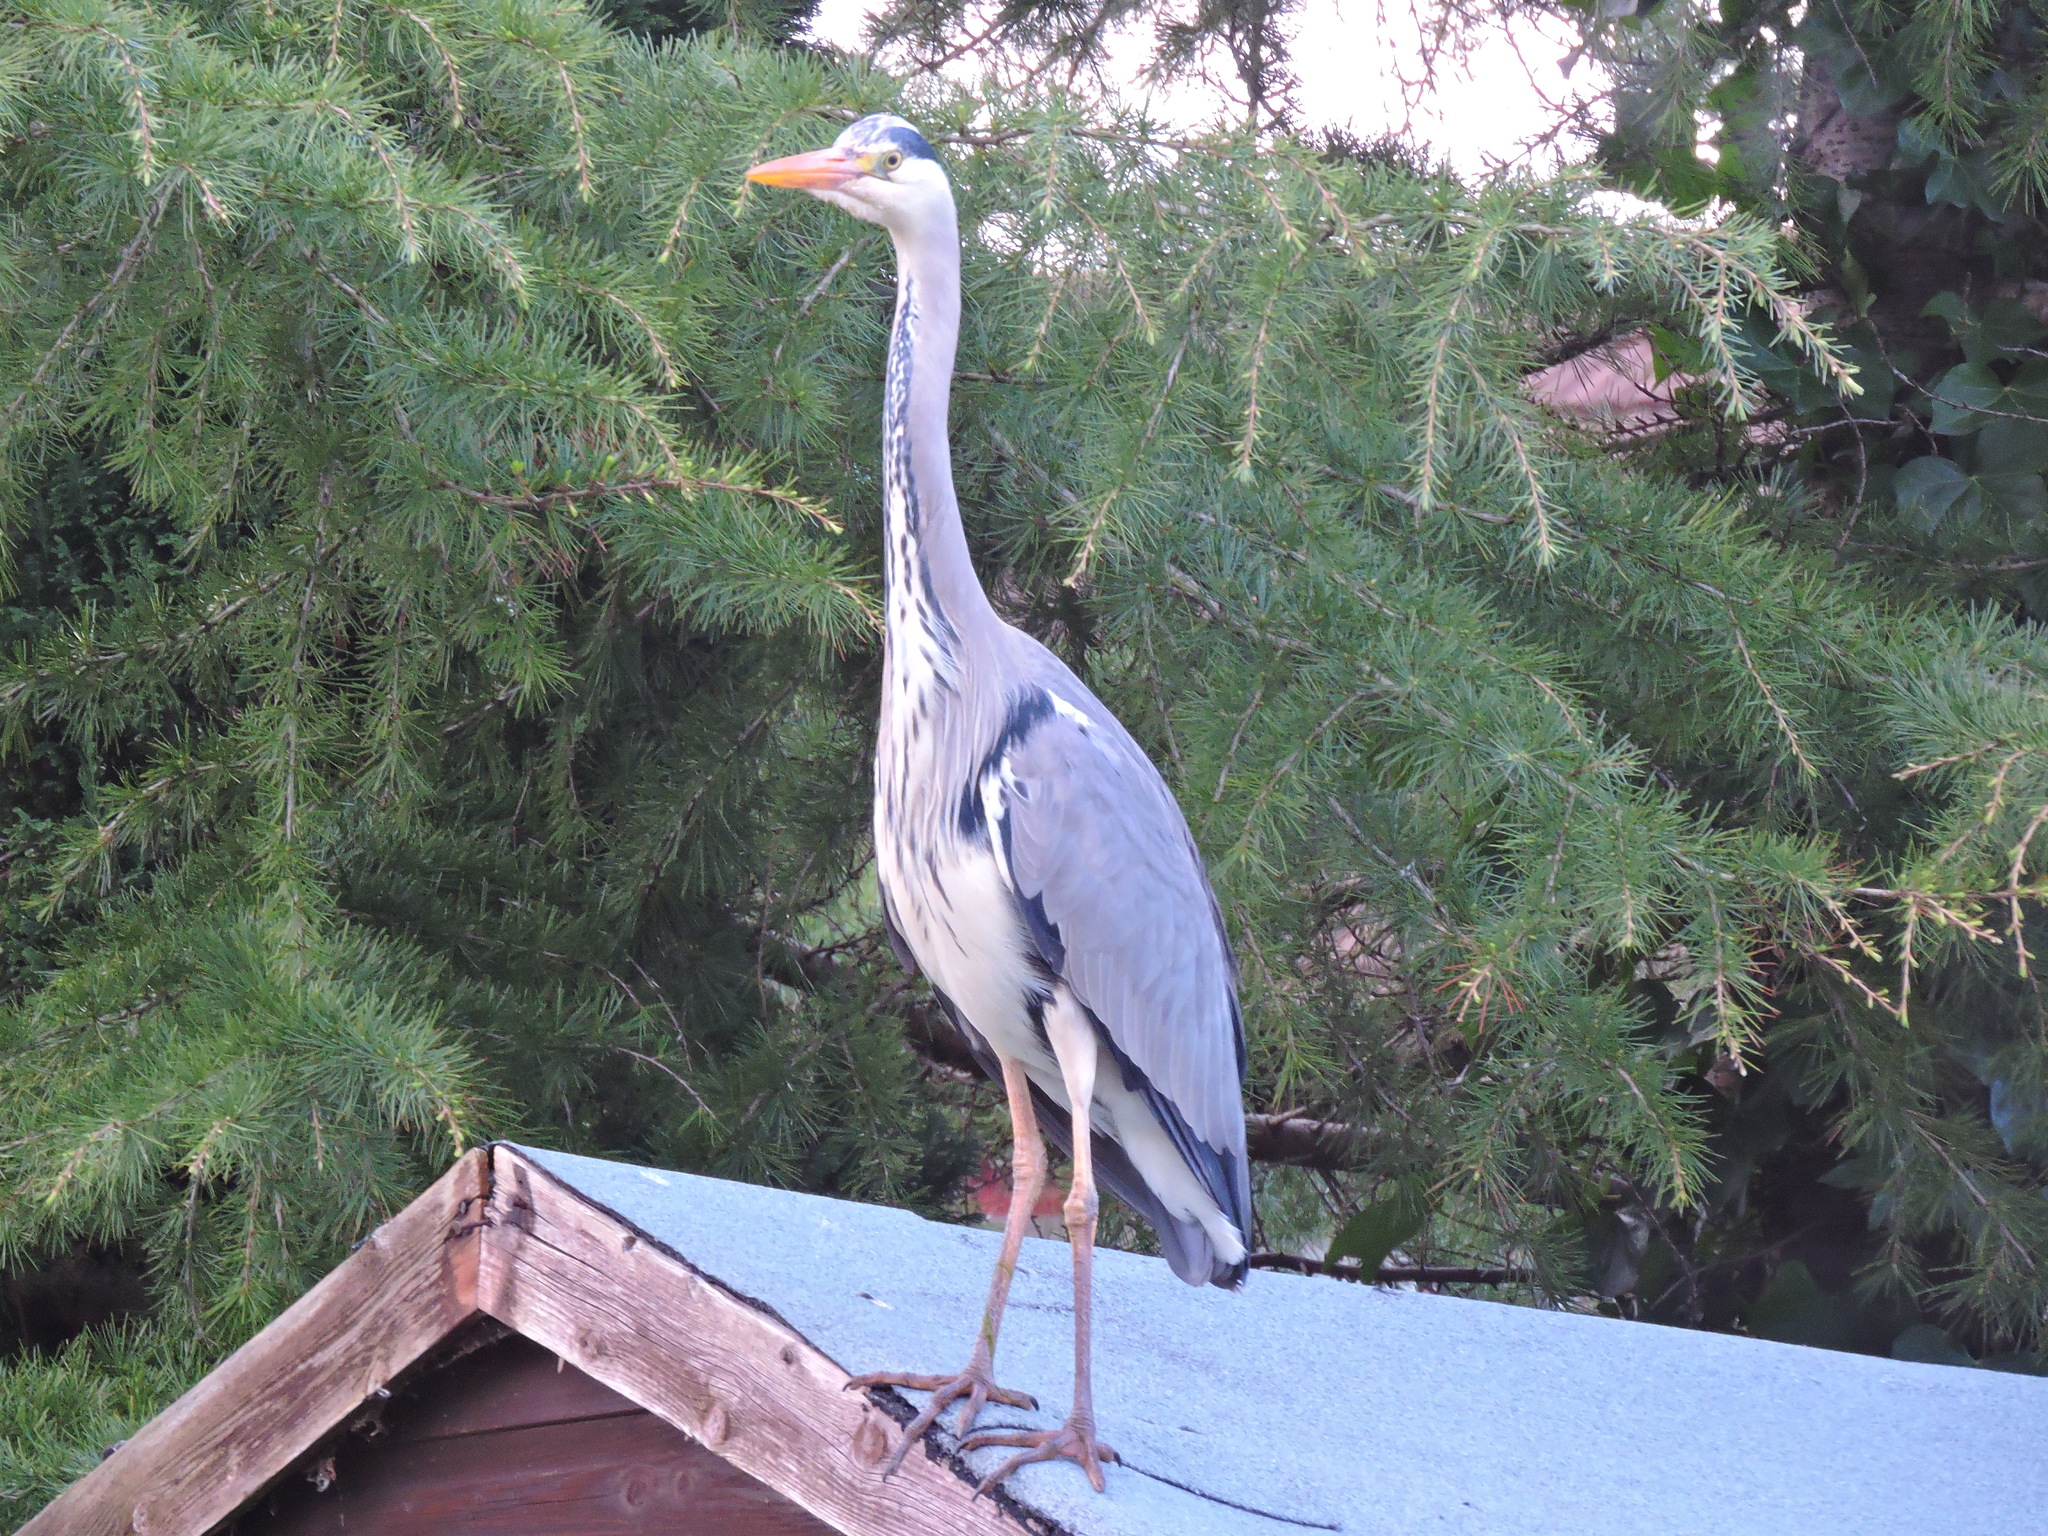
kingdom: Animalia
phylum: Chordata
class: Aves
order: Pelecaniformes
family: Ardeidae
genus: Ardea
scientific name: Ardea cinerea
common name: Grey heron
